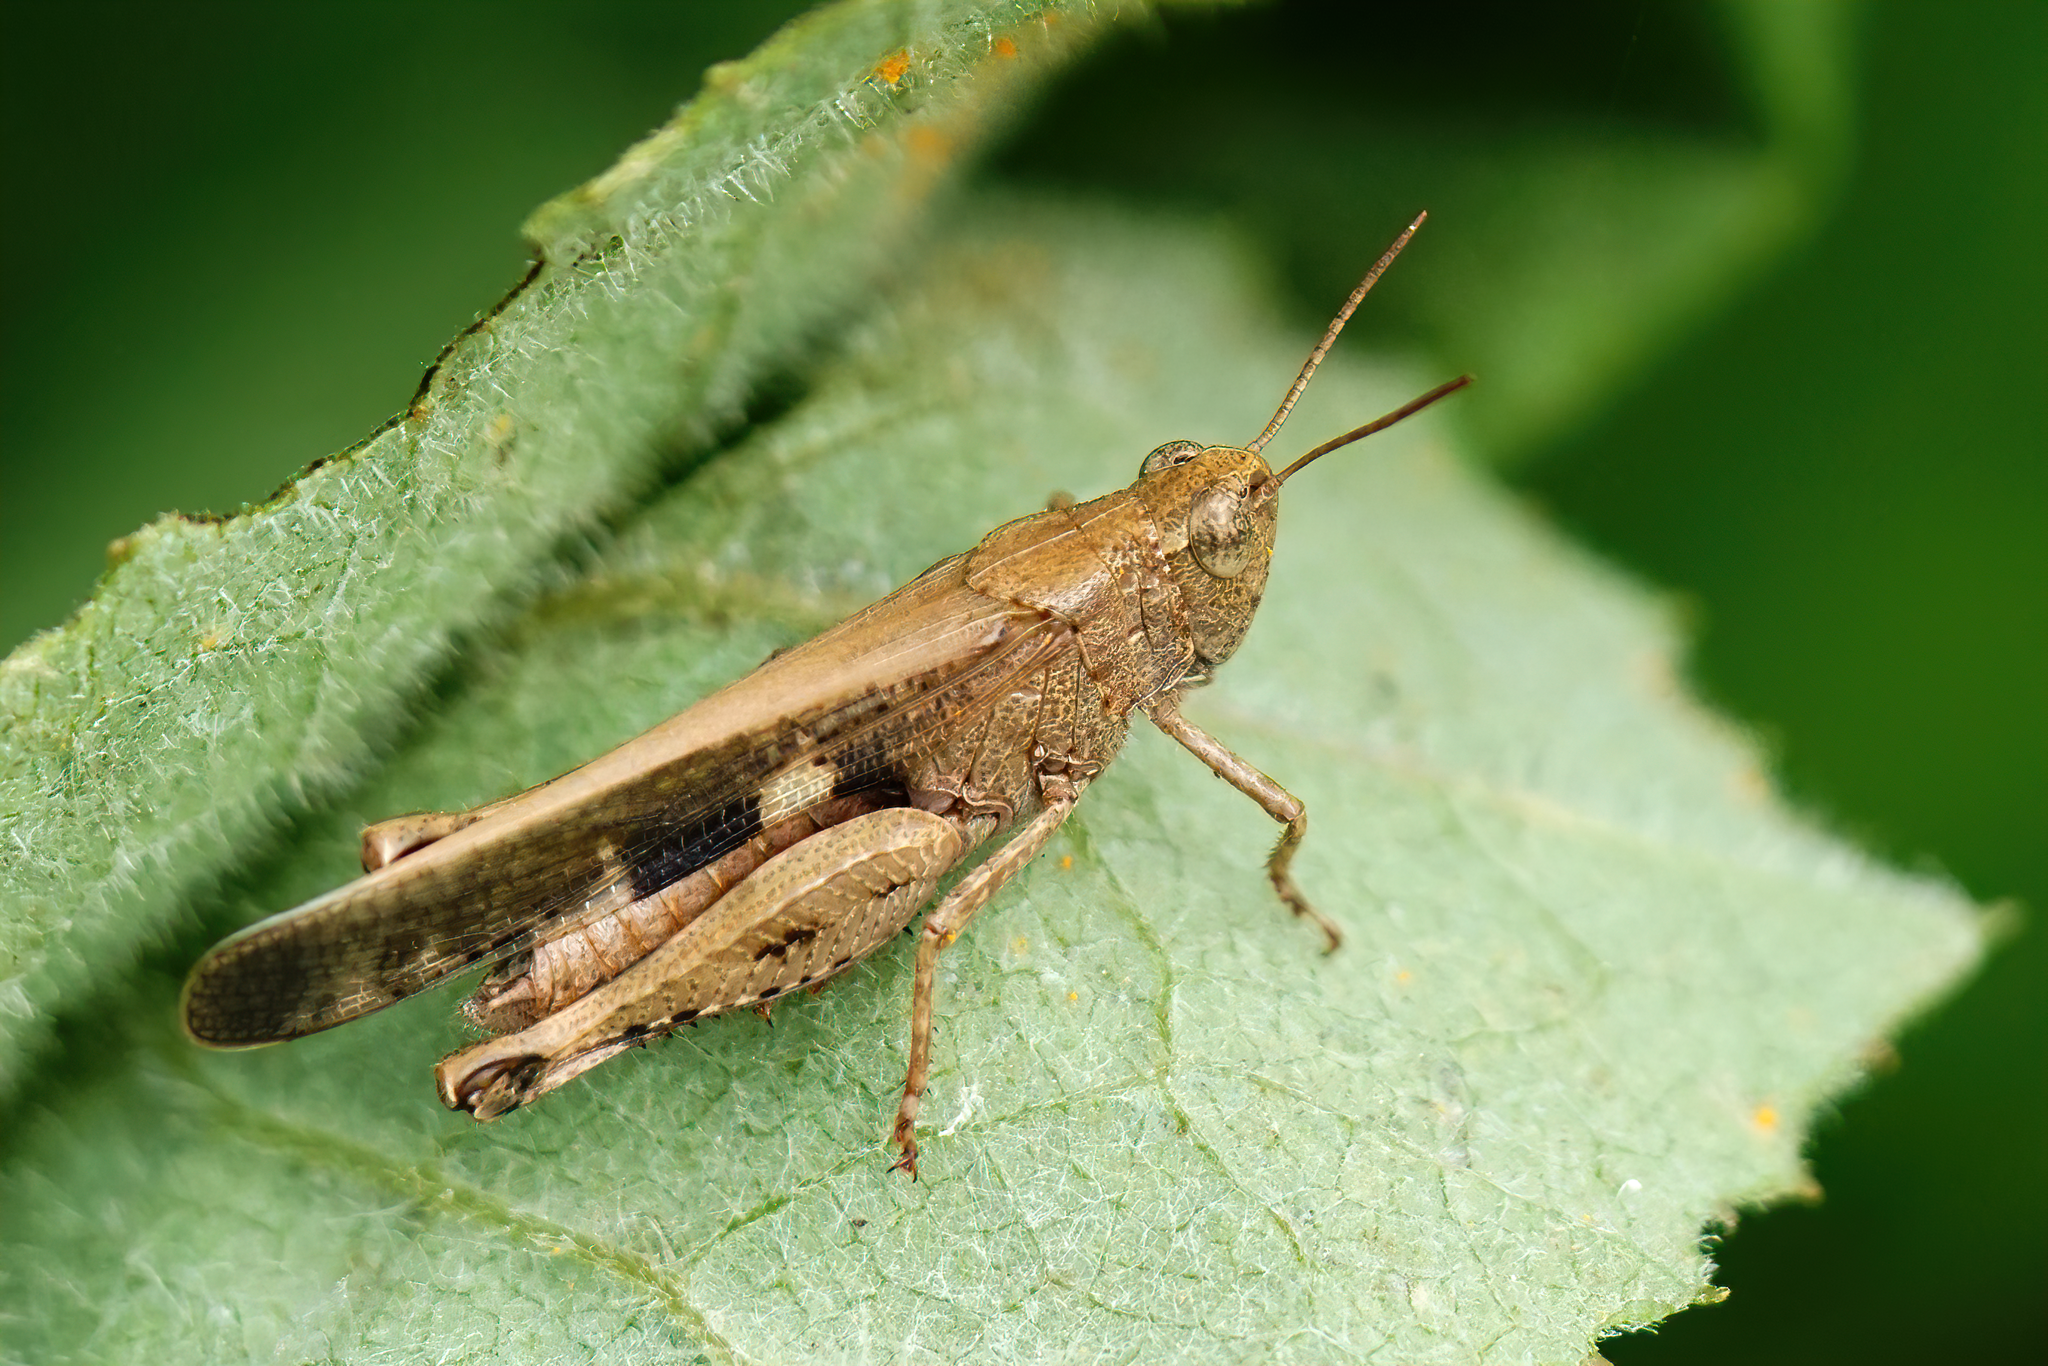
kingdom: Animalia
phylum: Arthropoda
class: Insecta
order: Orthoptera
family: Acrididae
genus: Aiolopus
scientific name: Aiolopus strepens
